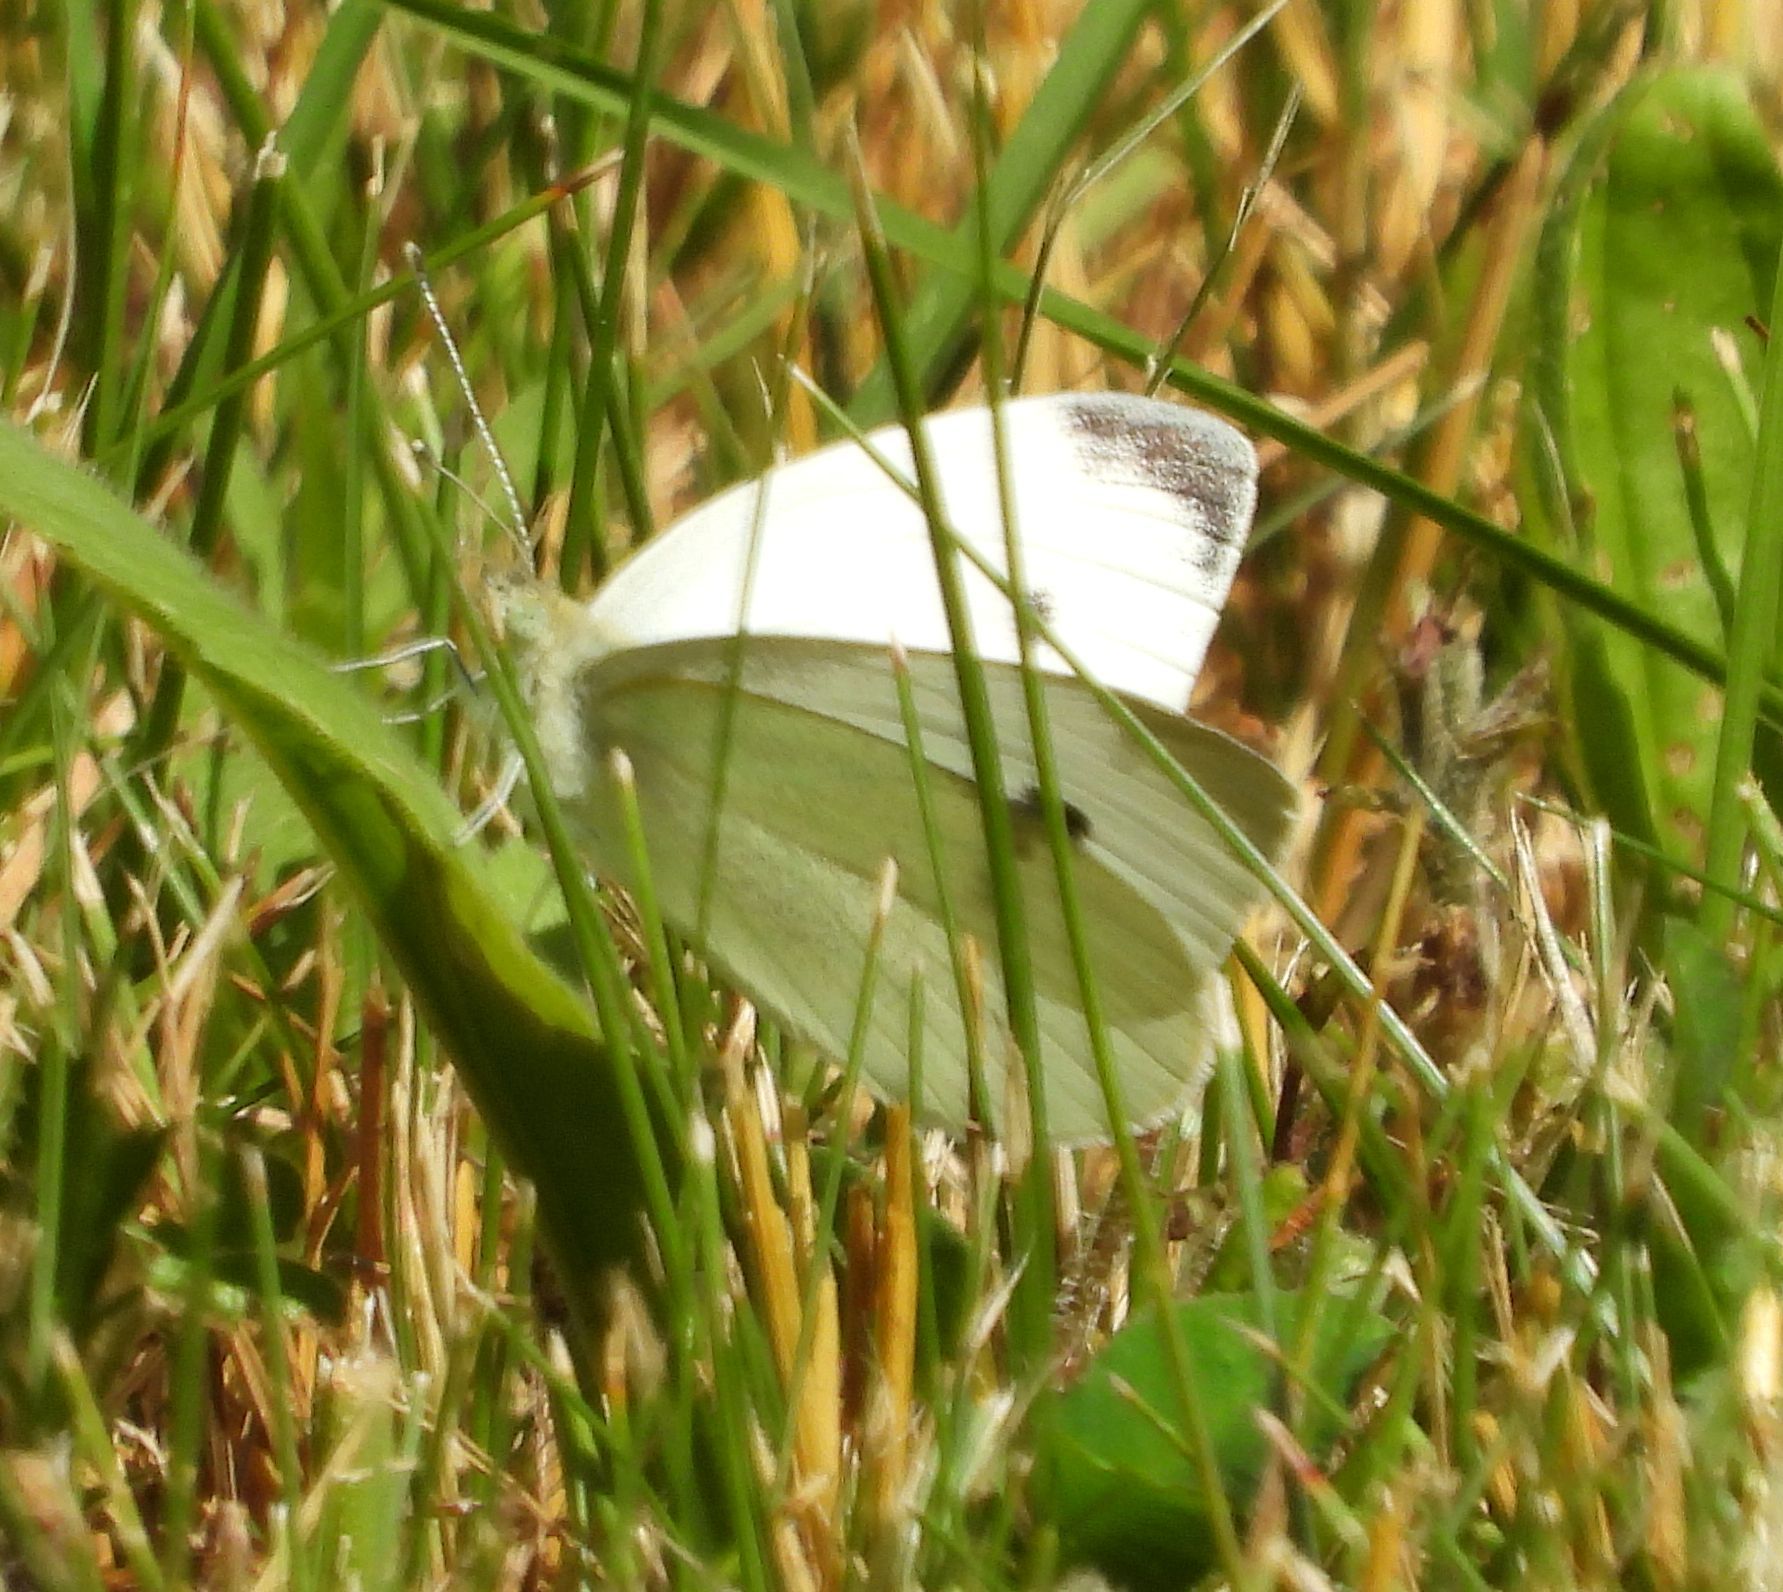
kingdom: Animalia
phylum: Arthropoda
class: Insecta
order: Lepidoptera
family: Pieridae
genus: Pieris
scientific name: Pieris rapae
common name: Small white
